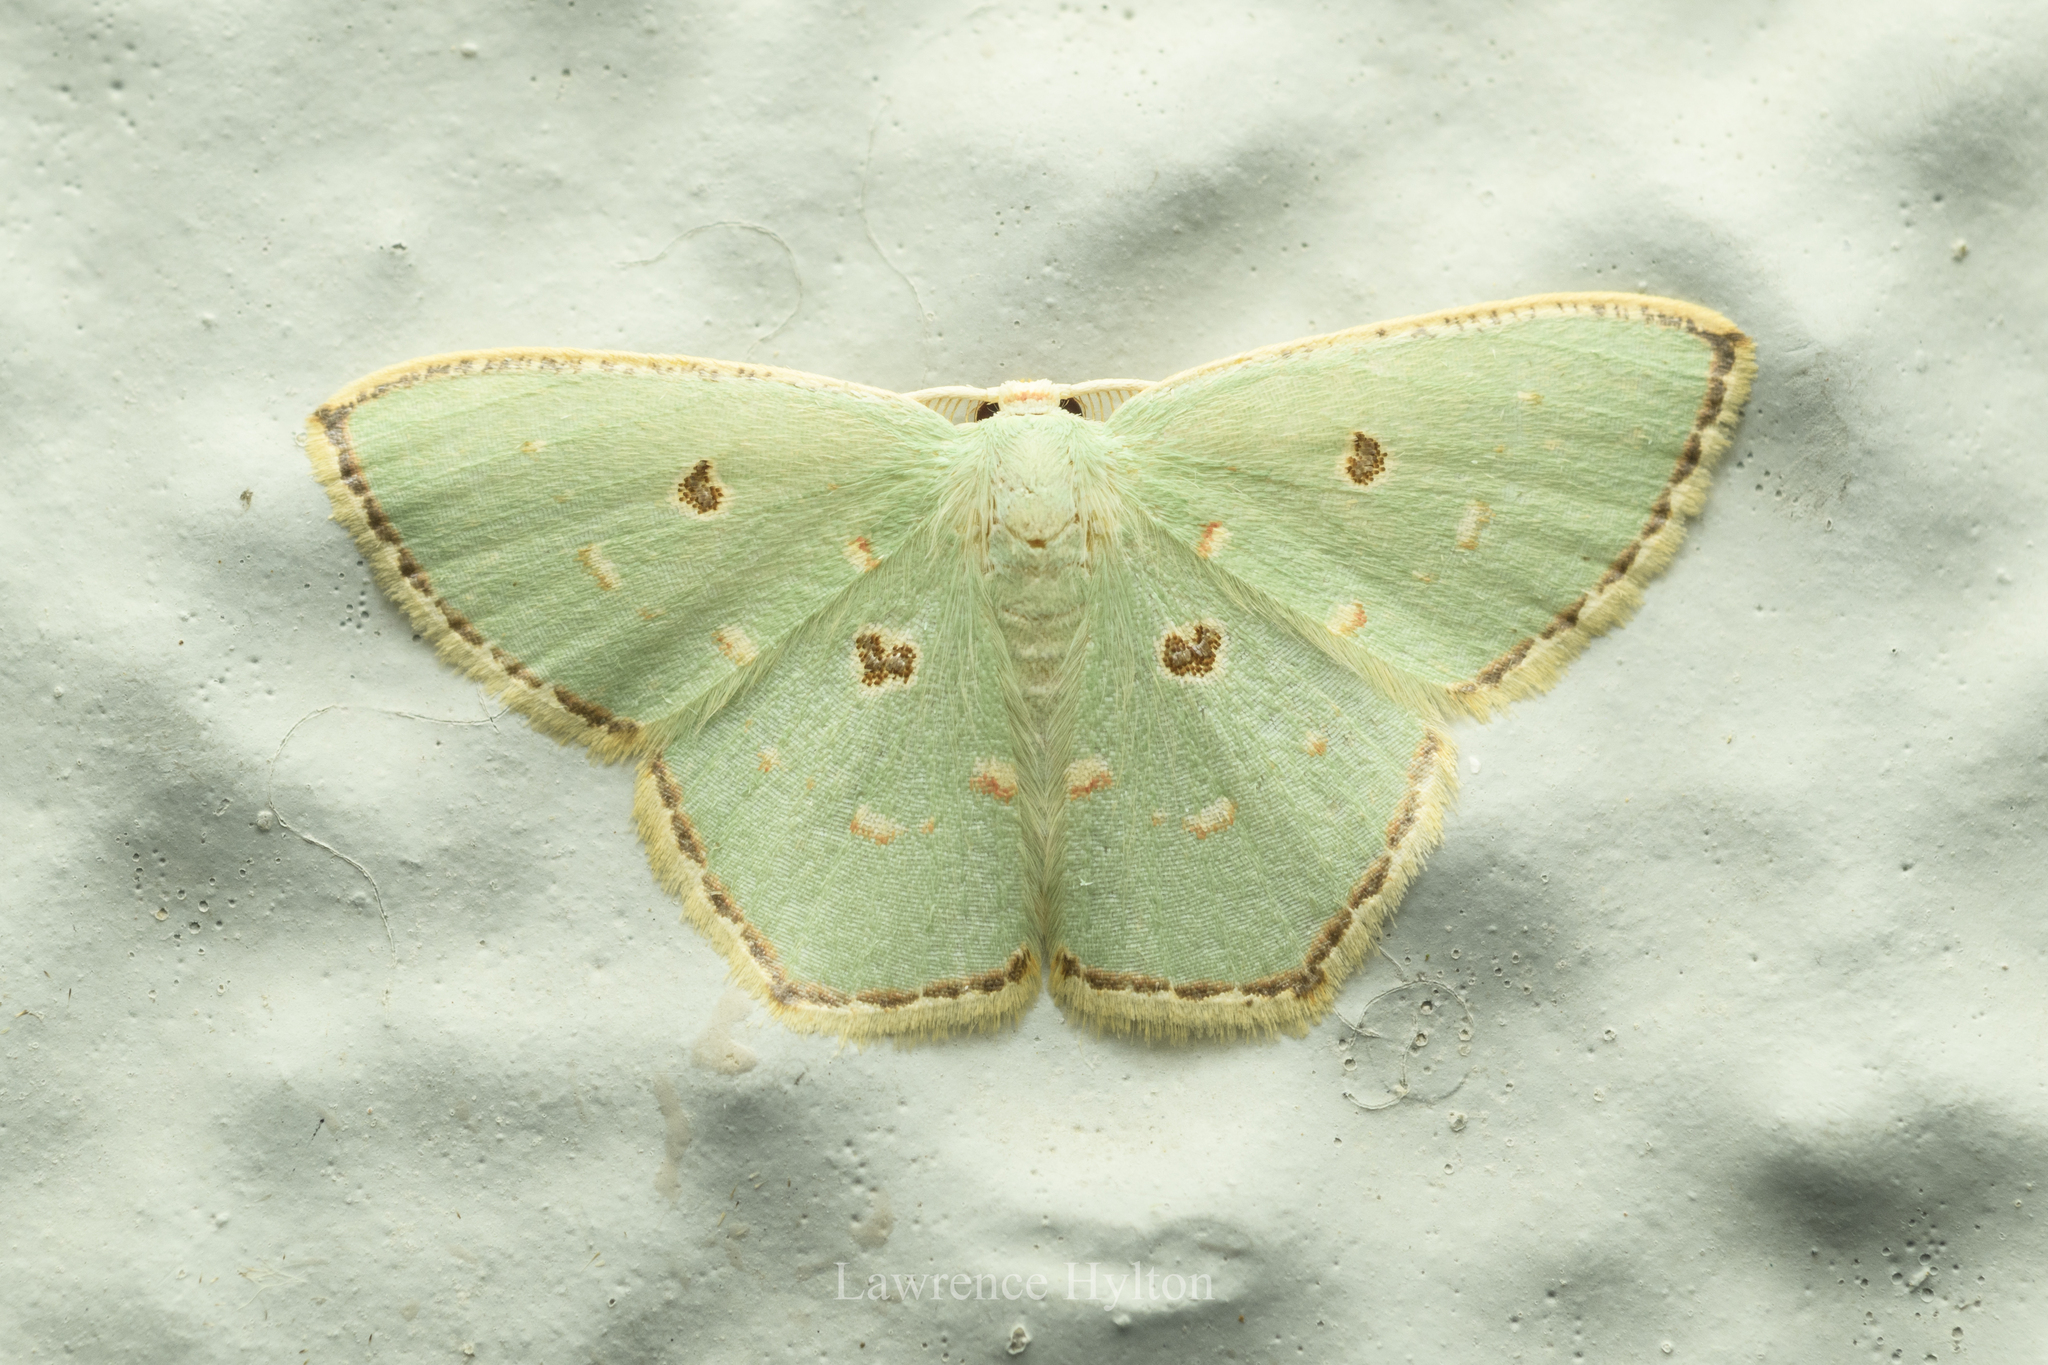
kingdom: Animalia
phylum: Arthropoda
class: Insecta
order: Lepidoptera
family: Geometridae
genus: Comostola
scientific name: Comostola meritaria
